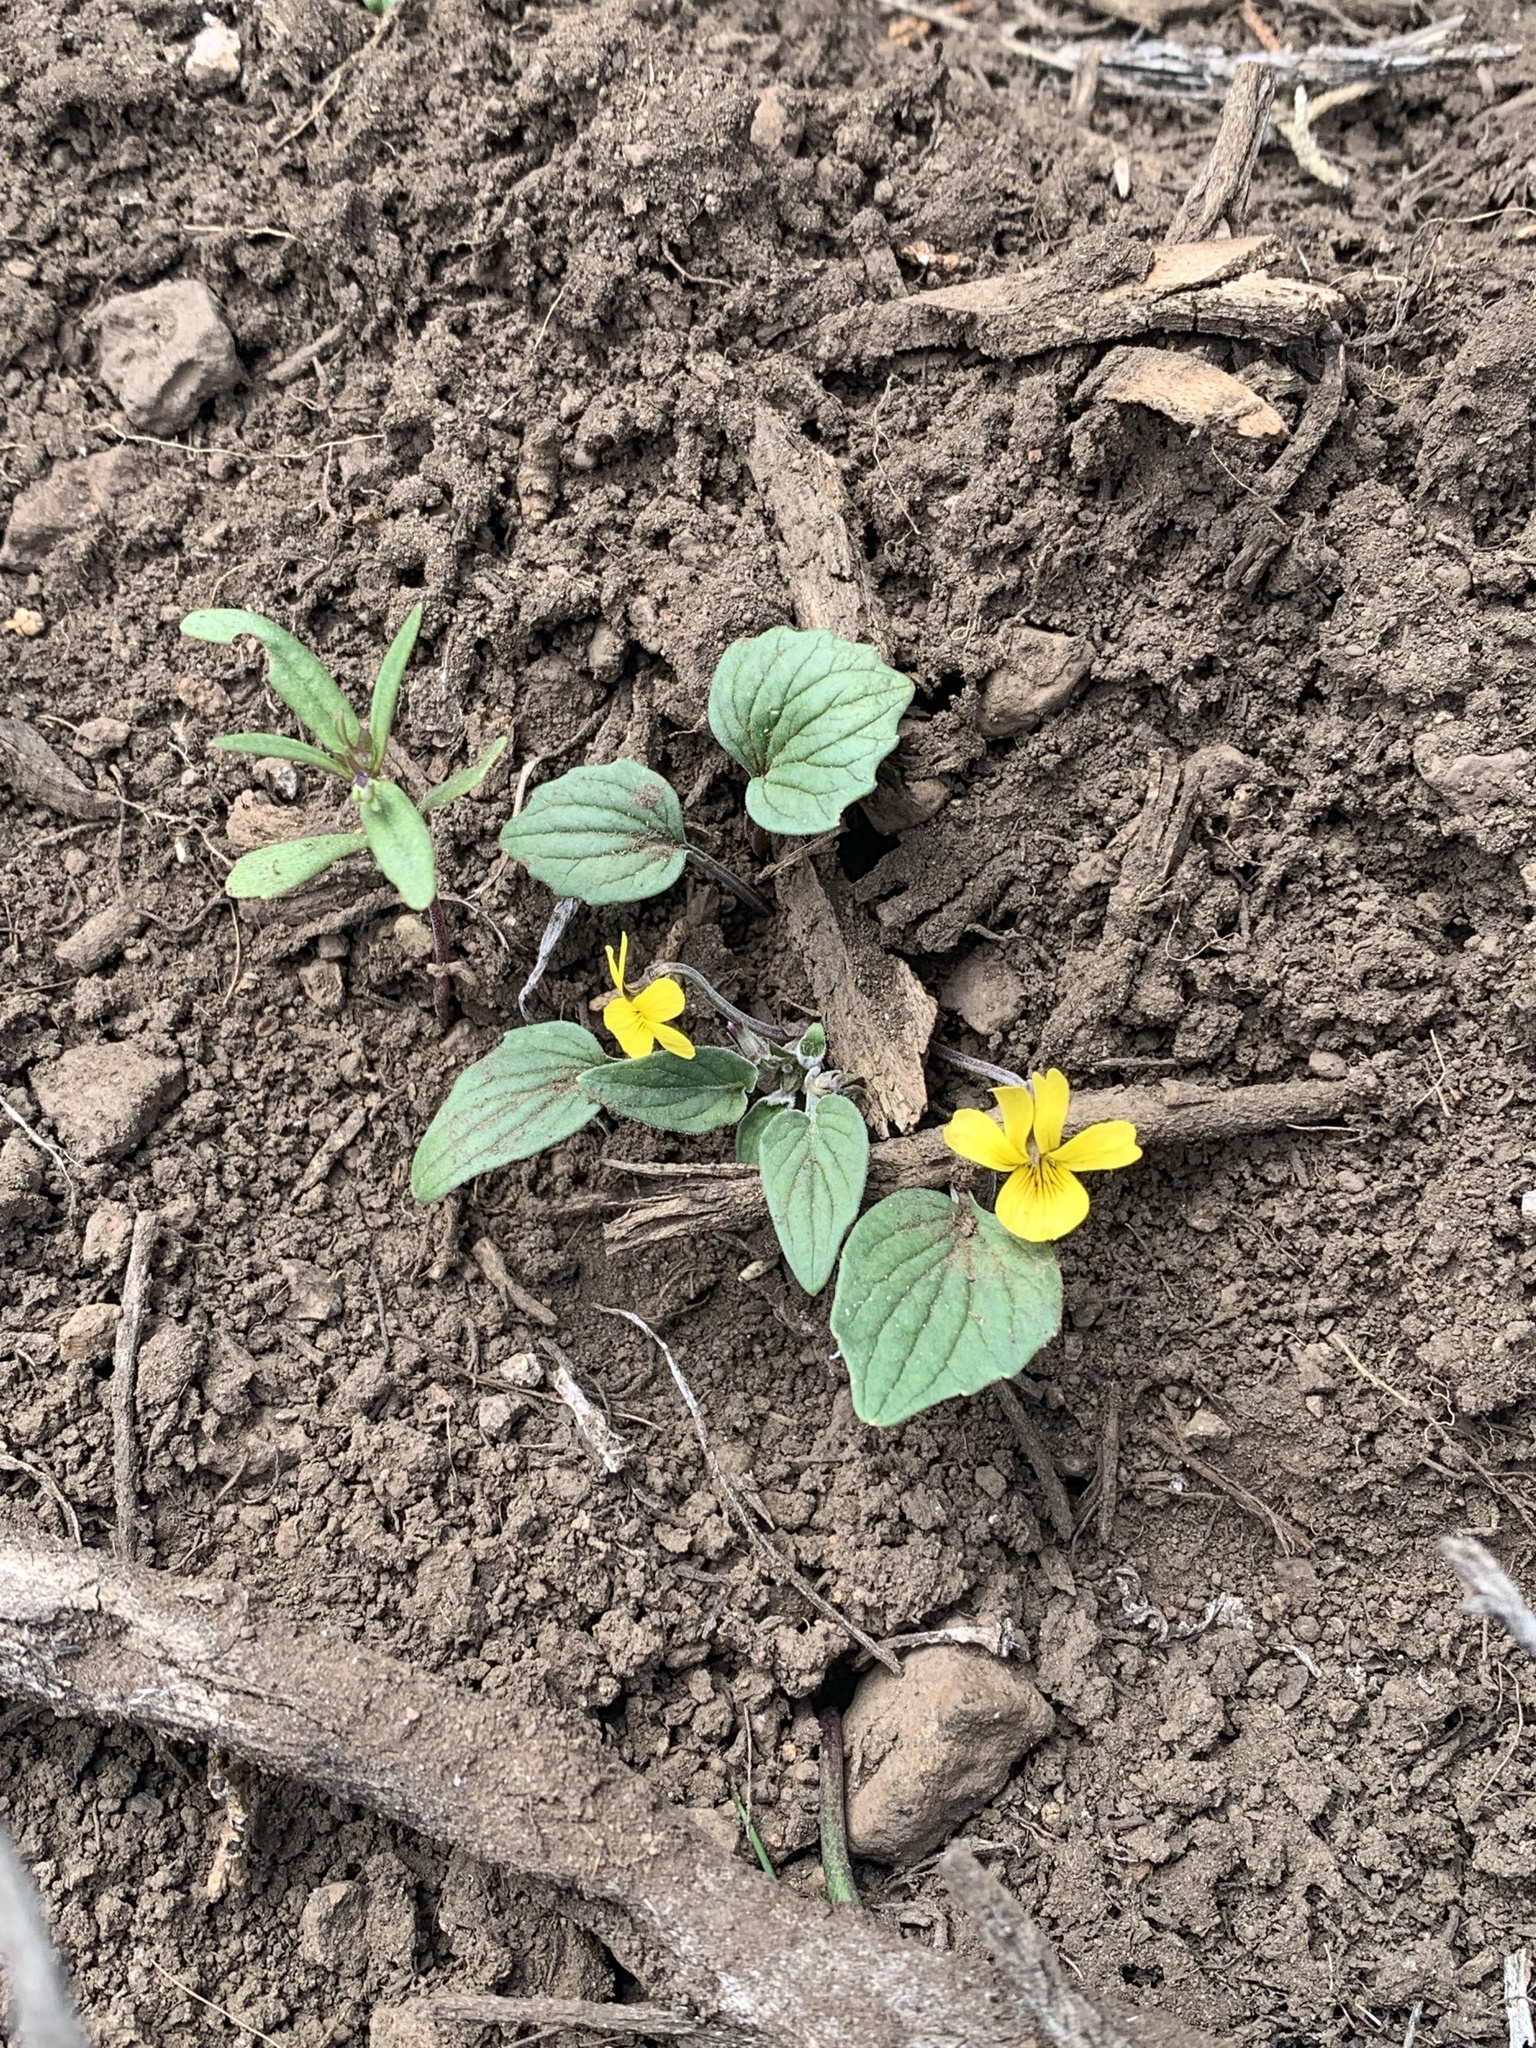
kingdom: Plantae
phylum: Tracheophyta
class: Magnoliopsida
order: Malpighiales
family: Violaceae
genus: Viola
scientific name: Viola purpurea
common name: Pine violet
